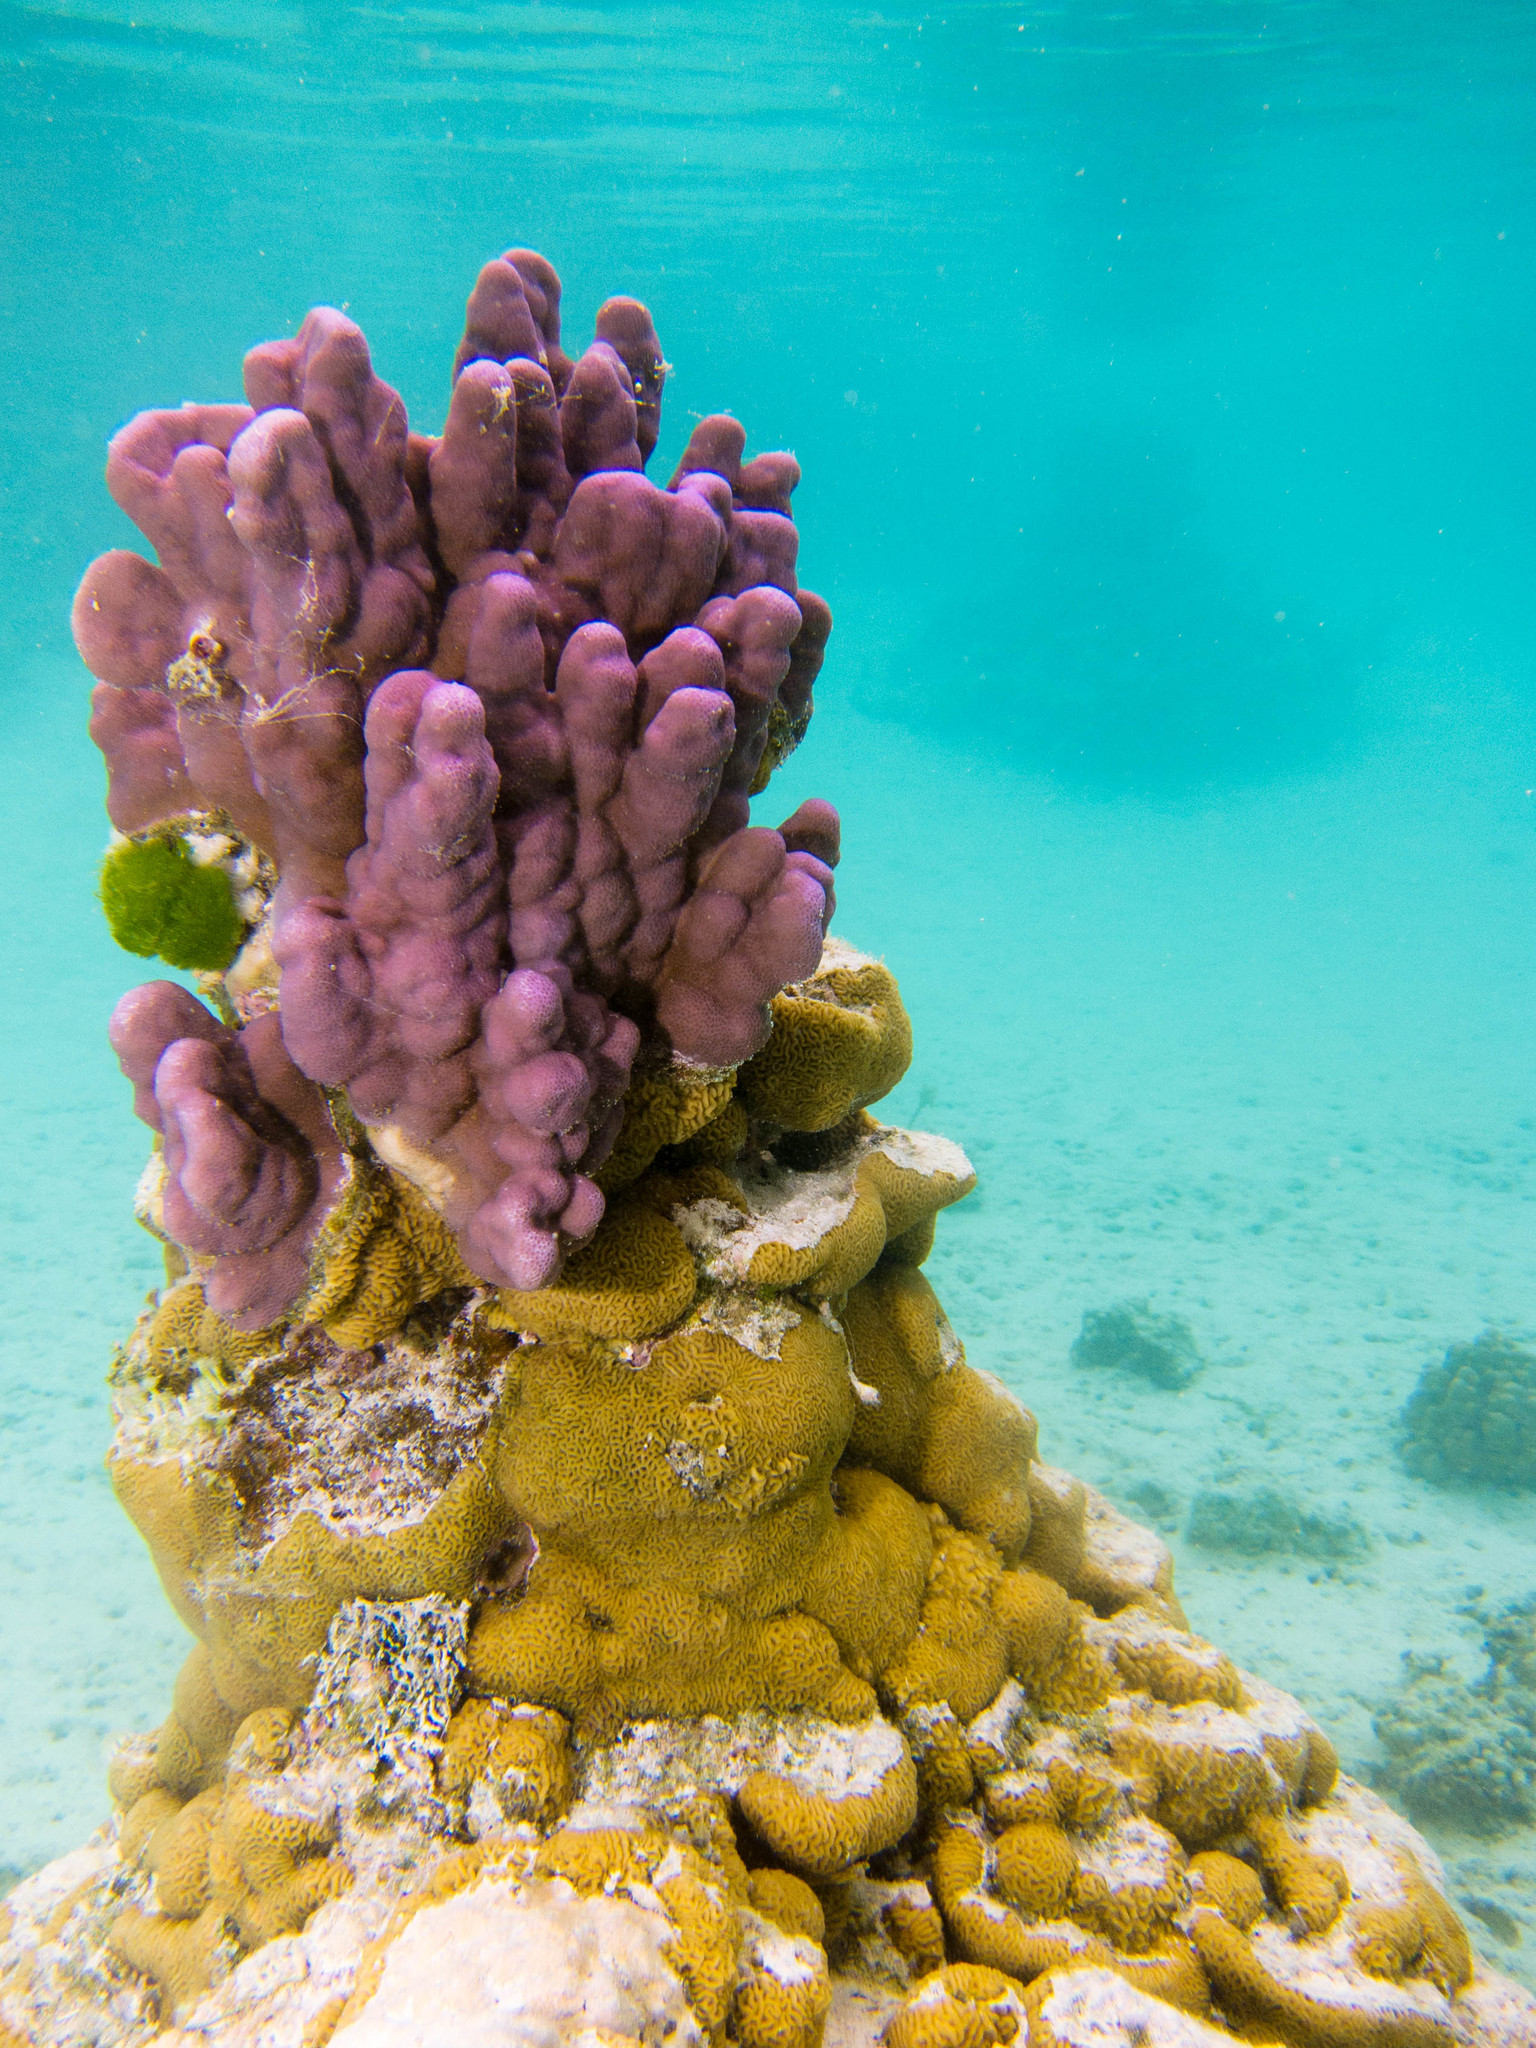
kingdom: Animalia
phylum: Cnidaria
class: Anthozoa
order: Scleractinia
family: Agariciidae
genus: Pavona
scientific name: Pavona varians
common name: Leaf coral
